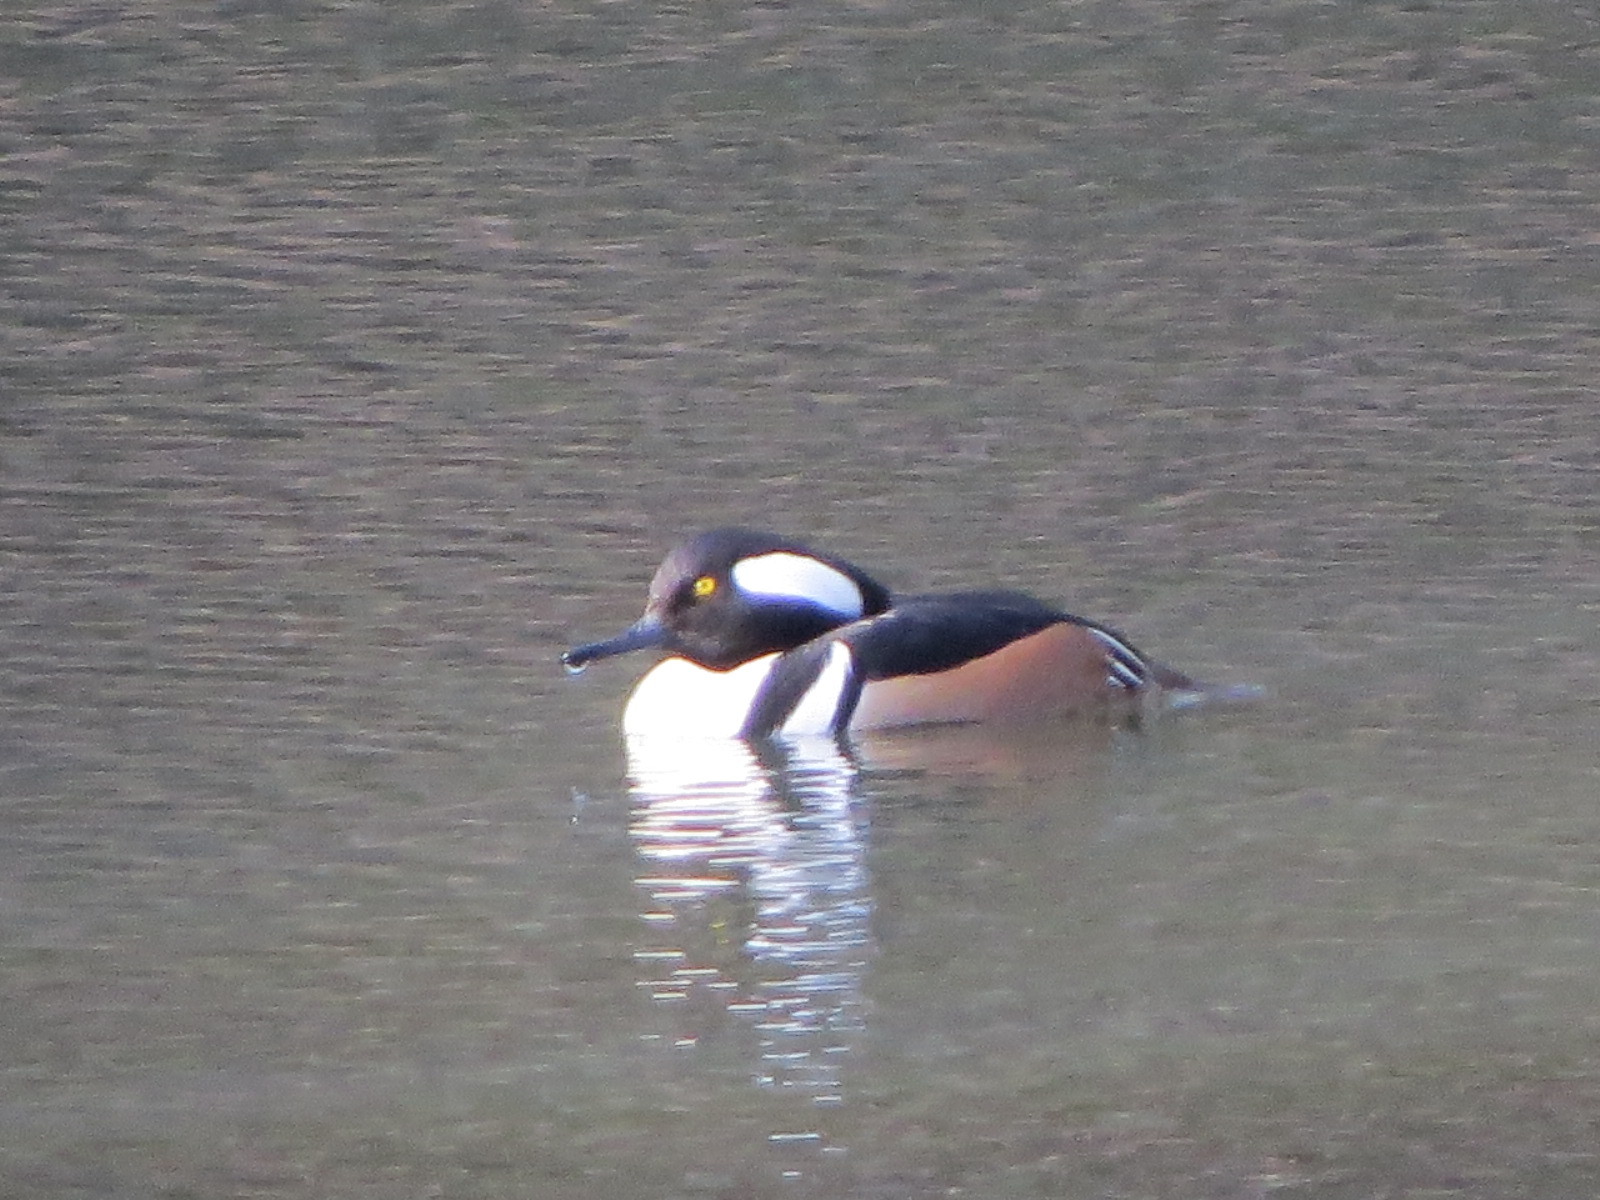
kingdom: Animalia
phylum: Chordata
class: Aves
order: Anseriformes
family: Anatidae
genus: Lophodytes
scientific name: Lophodytes cucullatus
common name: Hooded merganser
